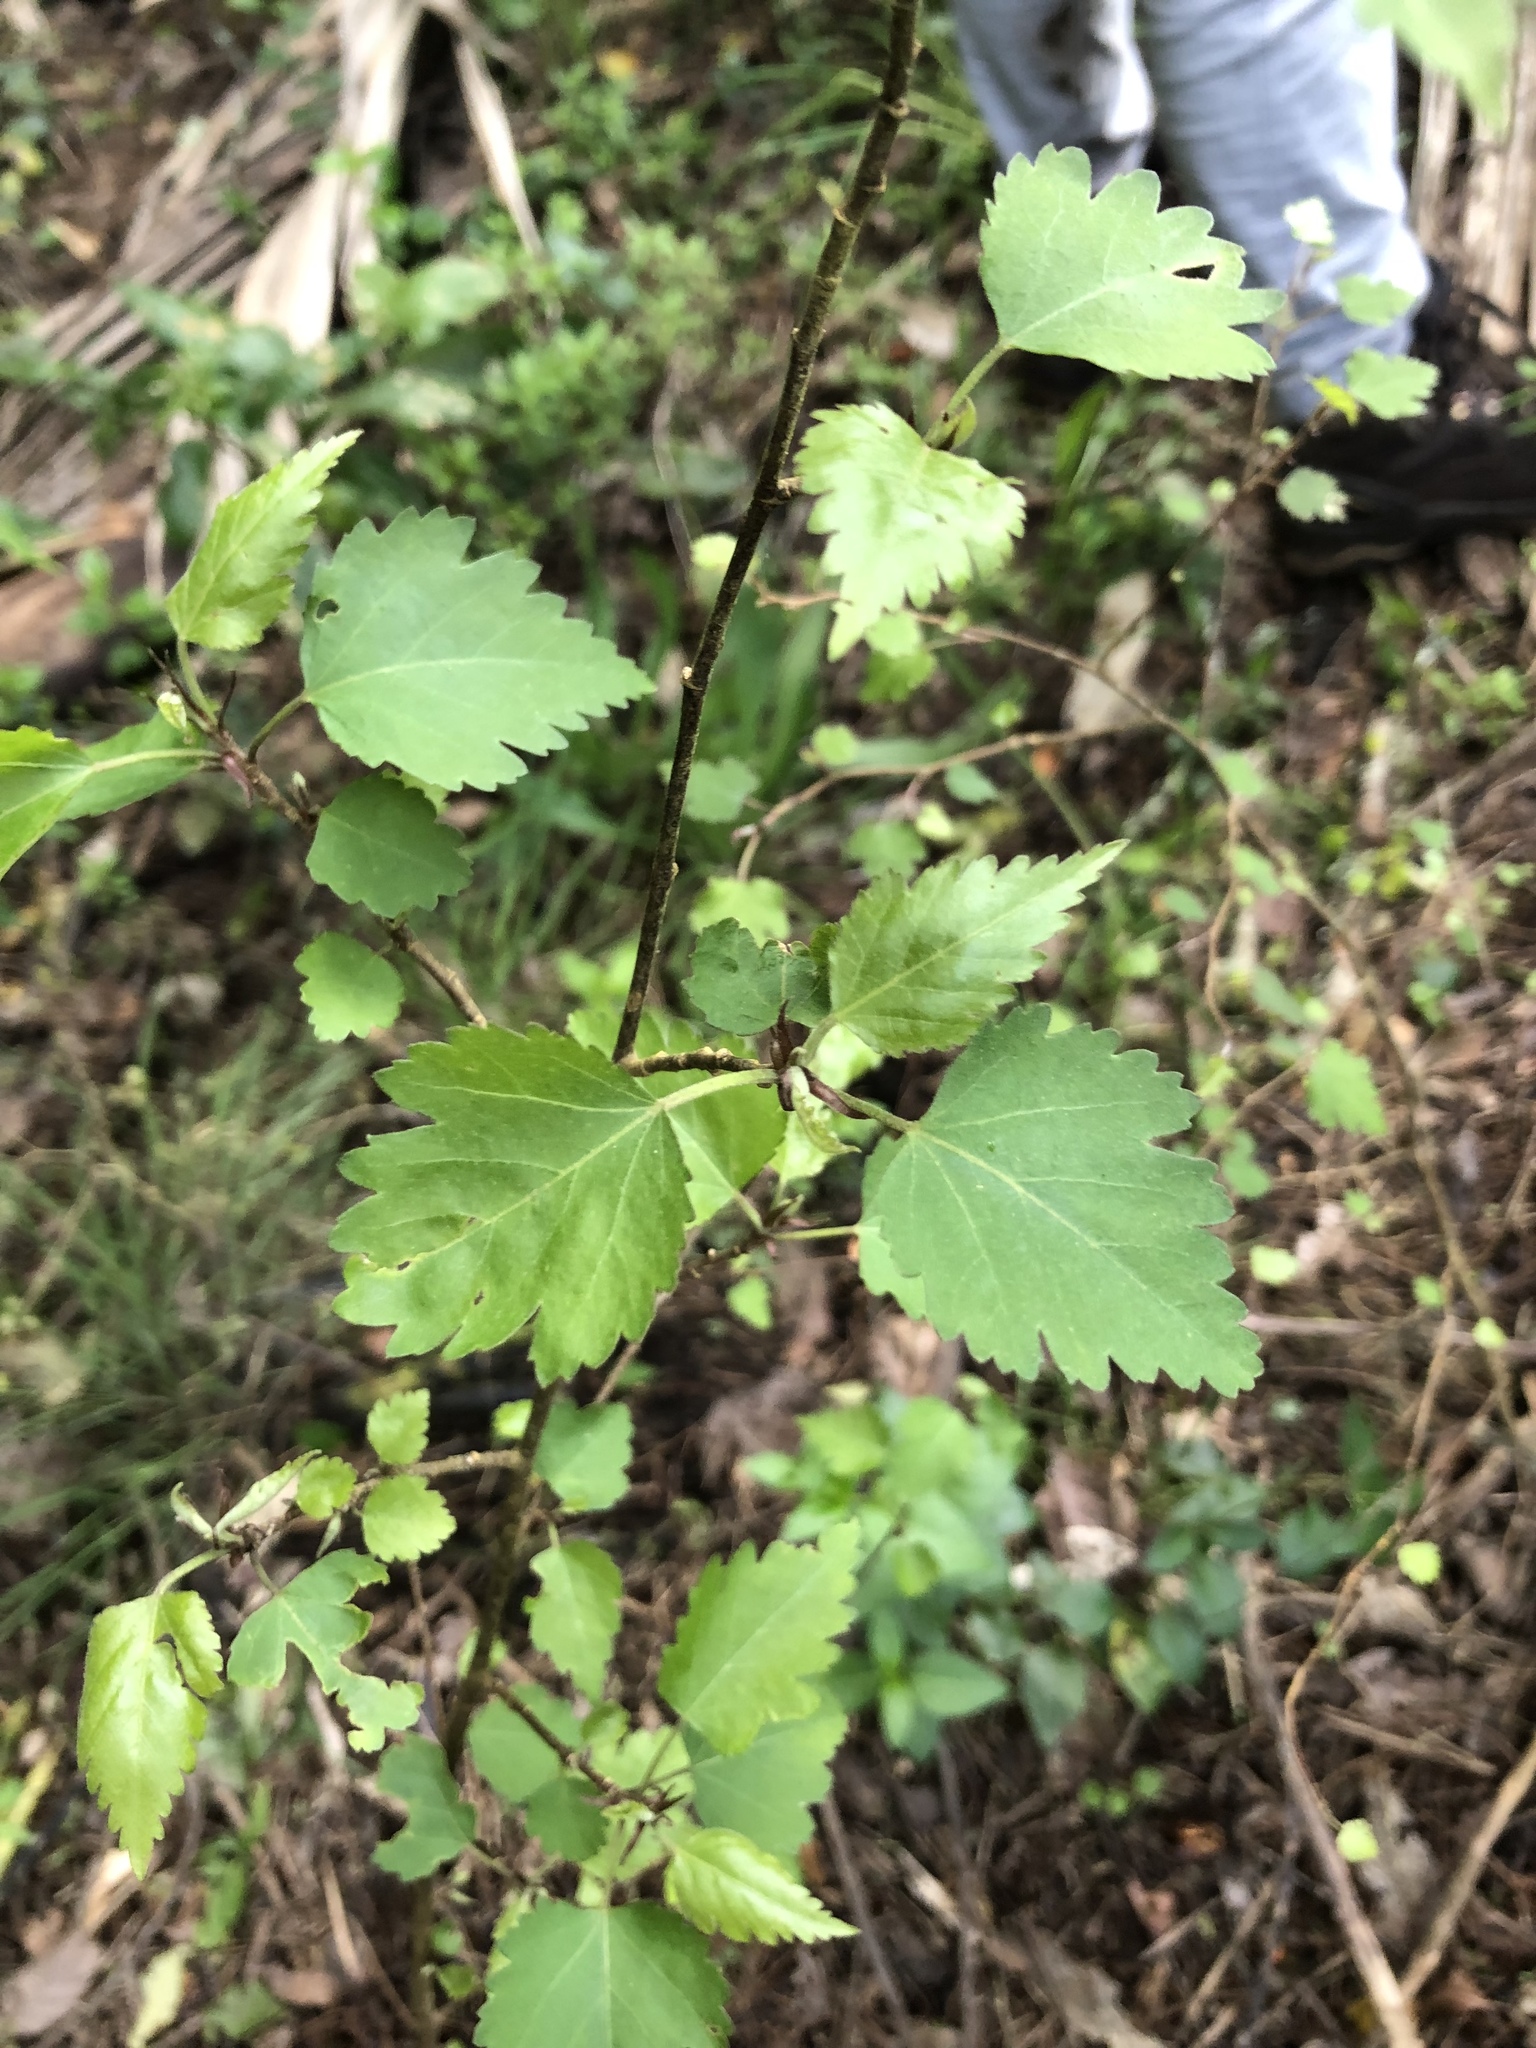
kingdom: Plantae
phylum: Tracheophyta
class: Magnoliopsida
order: Malvales
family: Malvaceae
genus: Plagianthus
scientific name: Plagianthus regius
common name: Manatu
